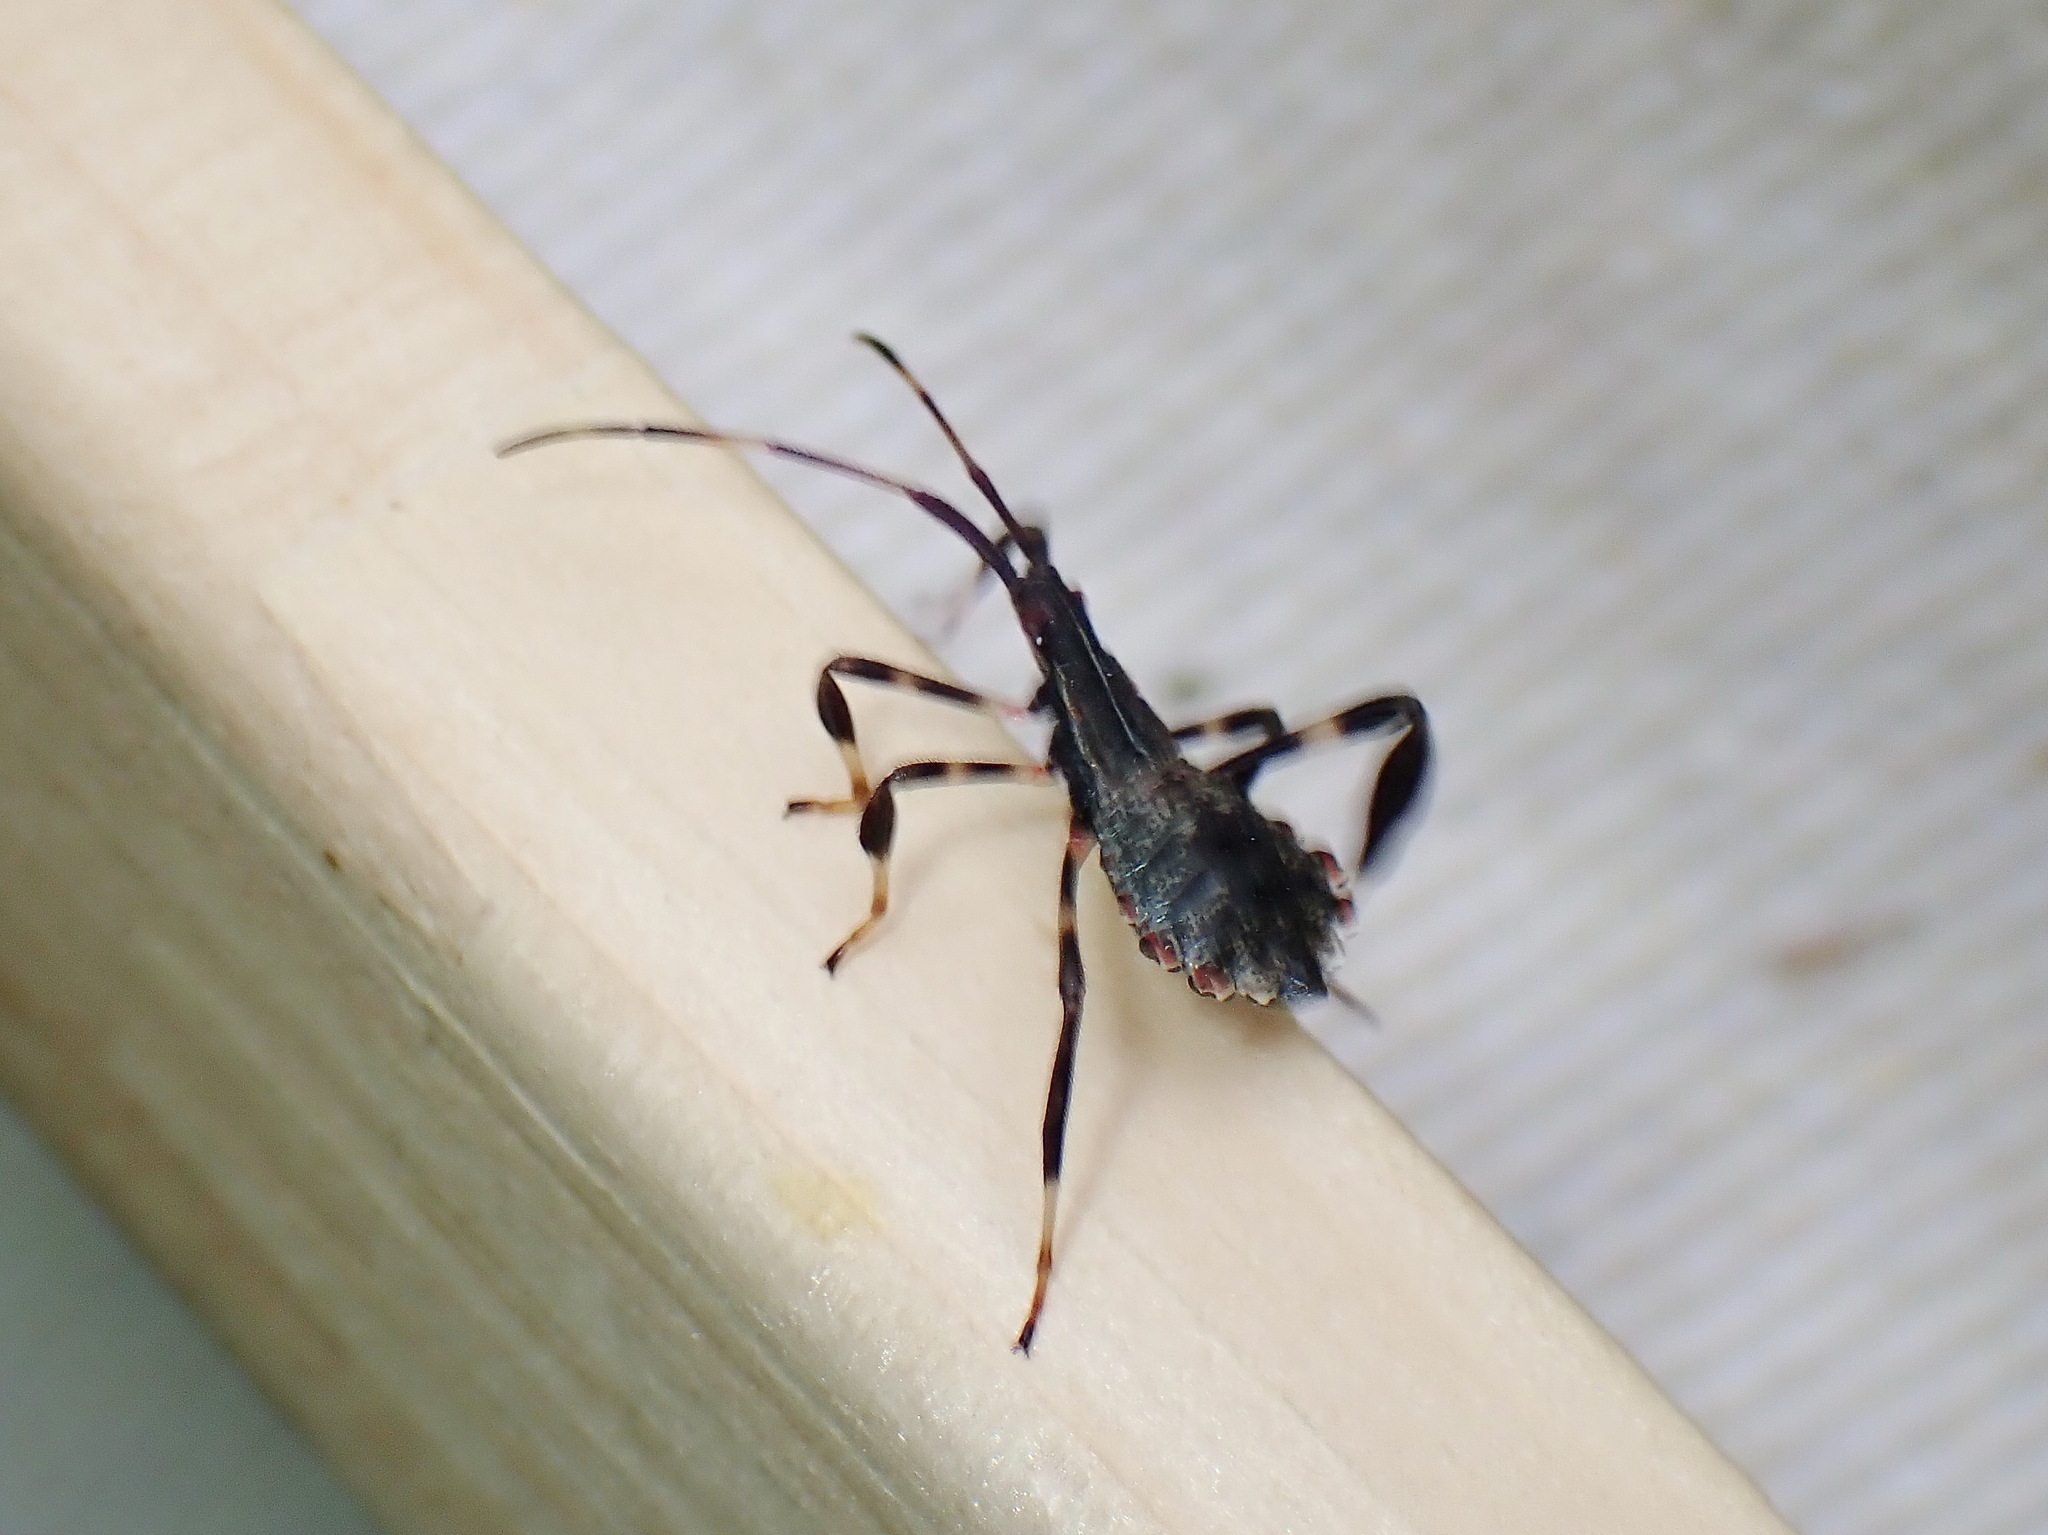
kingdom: Animalia
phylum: Arthropoda
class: Insecta
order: Hemiptera
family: Coreidae
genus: Acanthocephala
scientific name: Acanthocephala terminalis
